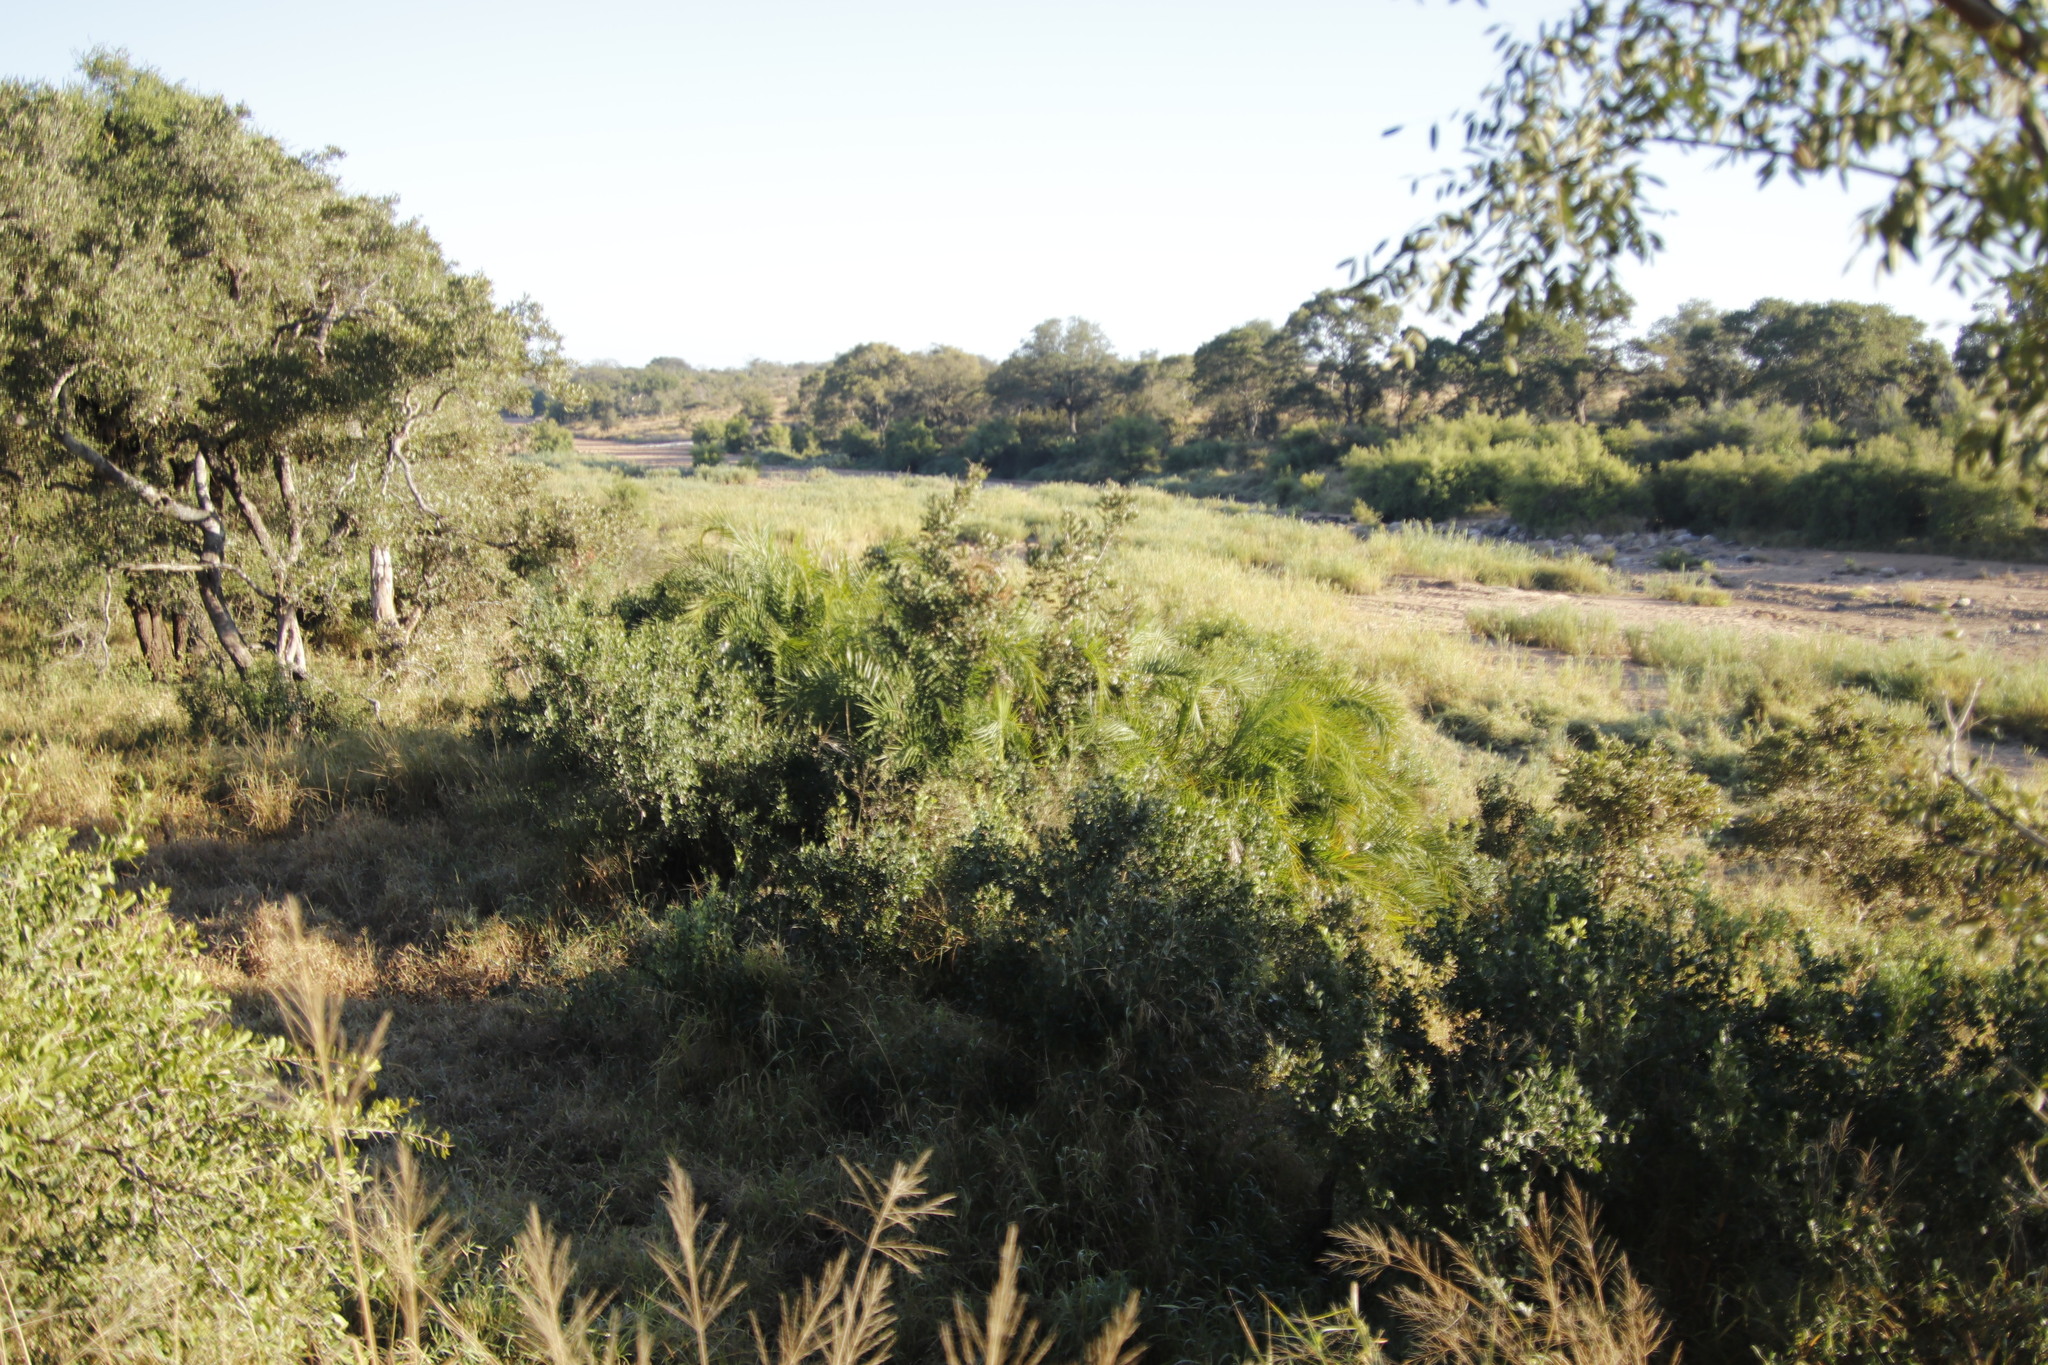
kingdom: Plantae
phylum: Tracheophyta
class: Liliopsida
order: Arecales
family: Arecaceae
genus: Phoenix
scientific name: Phoenix reclinata
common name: Senegal date palm
